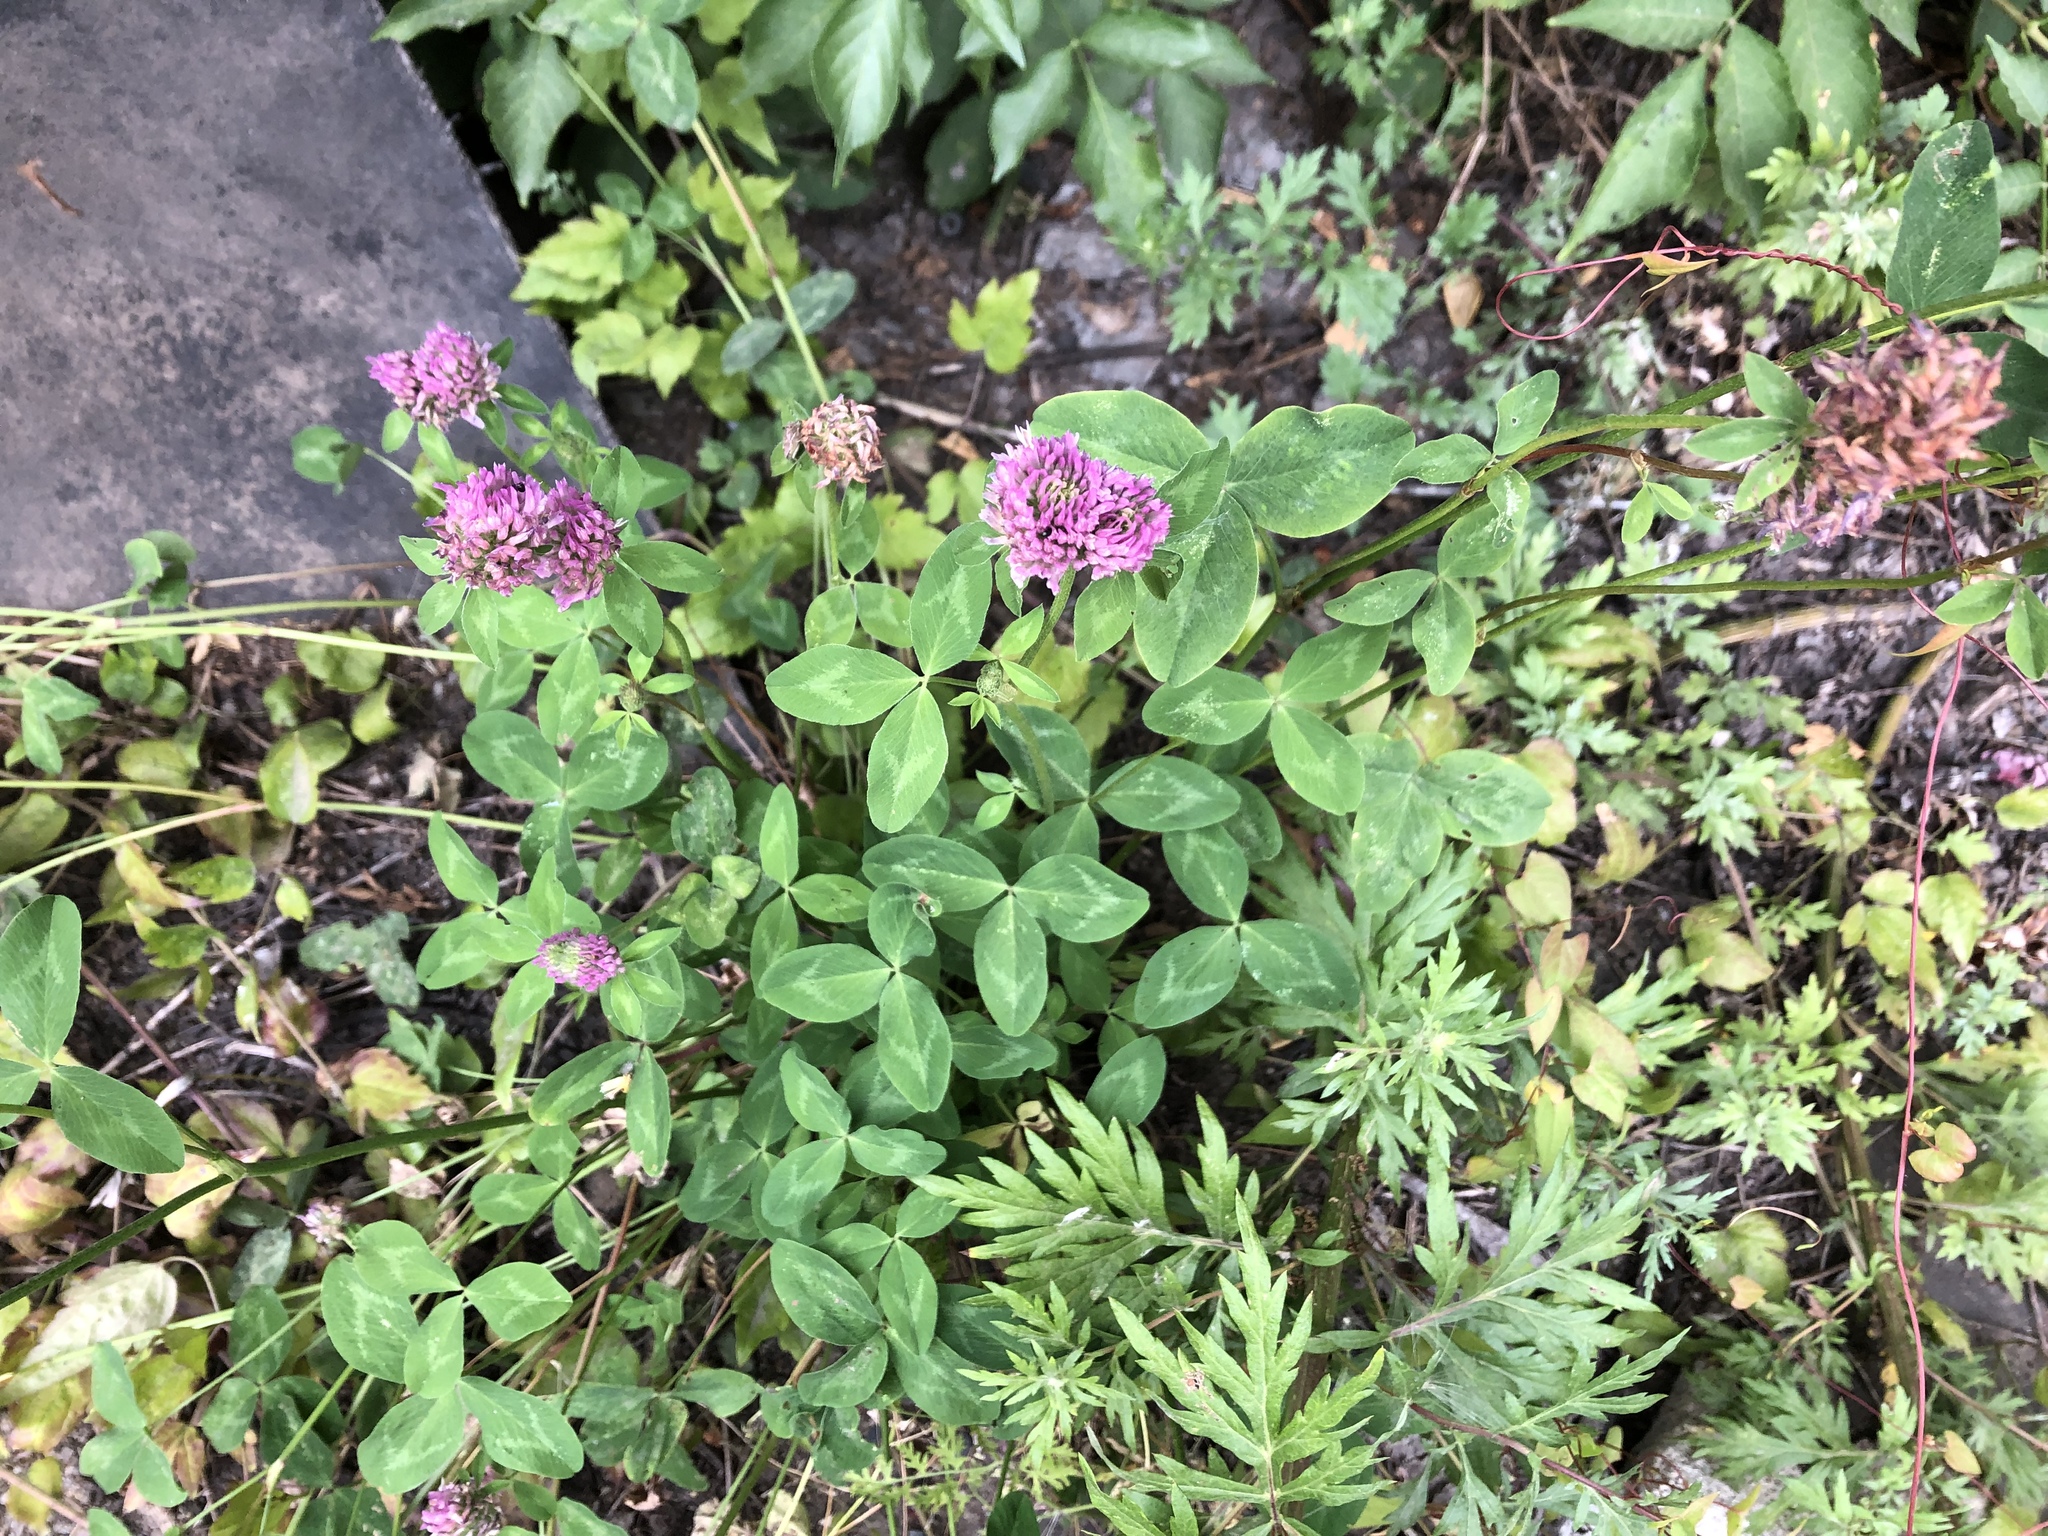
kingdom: Plantae
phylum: Tracheophyta
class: Magnoliopsida
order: Fabales
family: Fabaceae
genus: Trifolium
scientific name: Trifolium pratense
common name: Red clover
